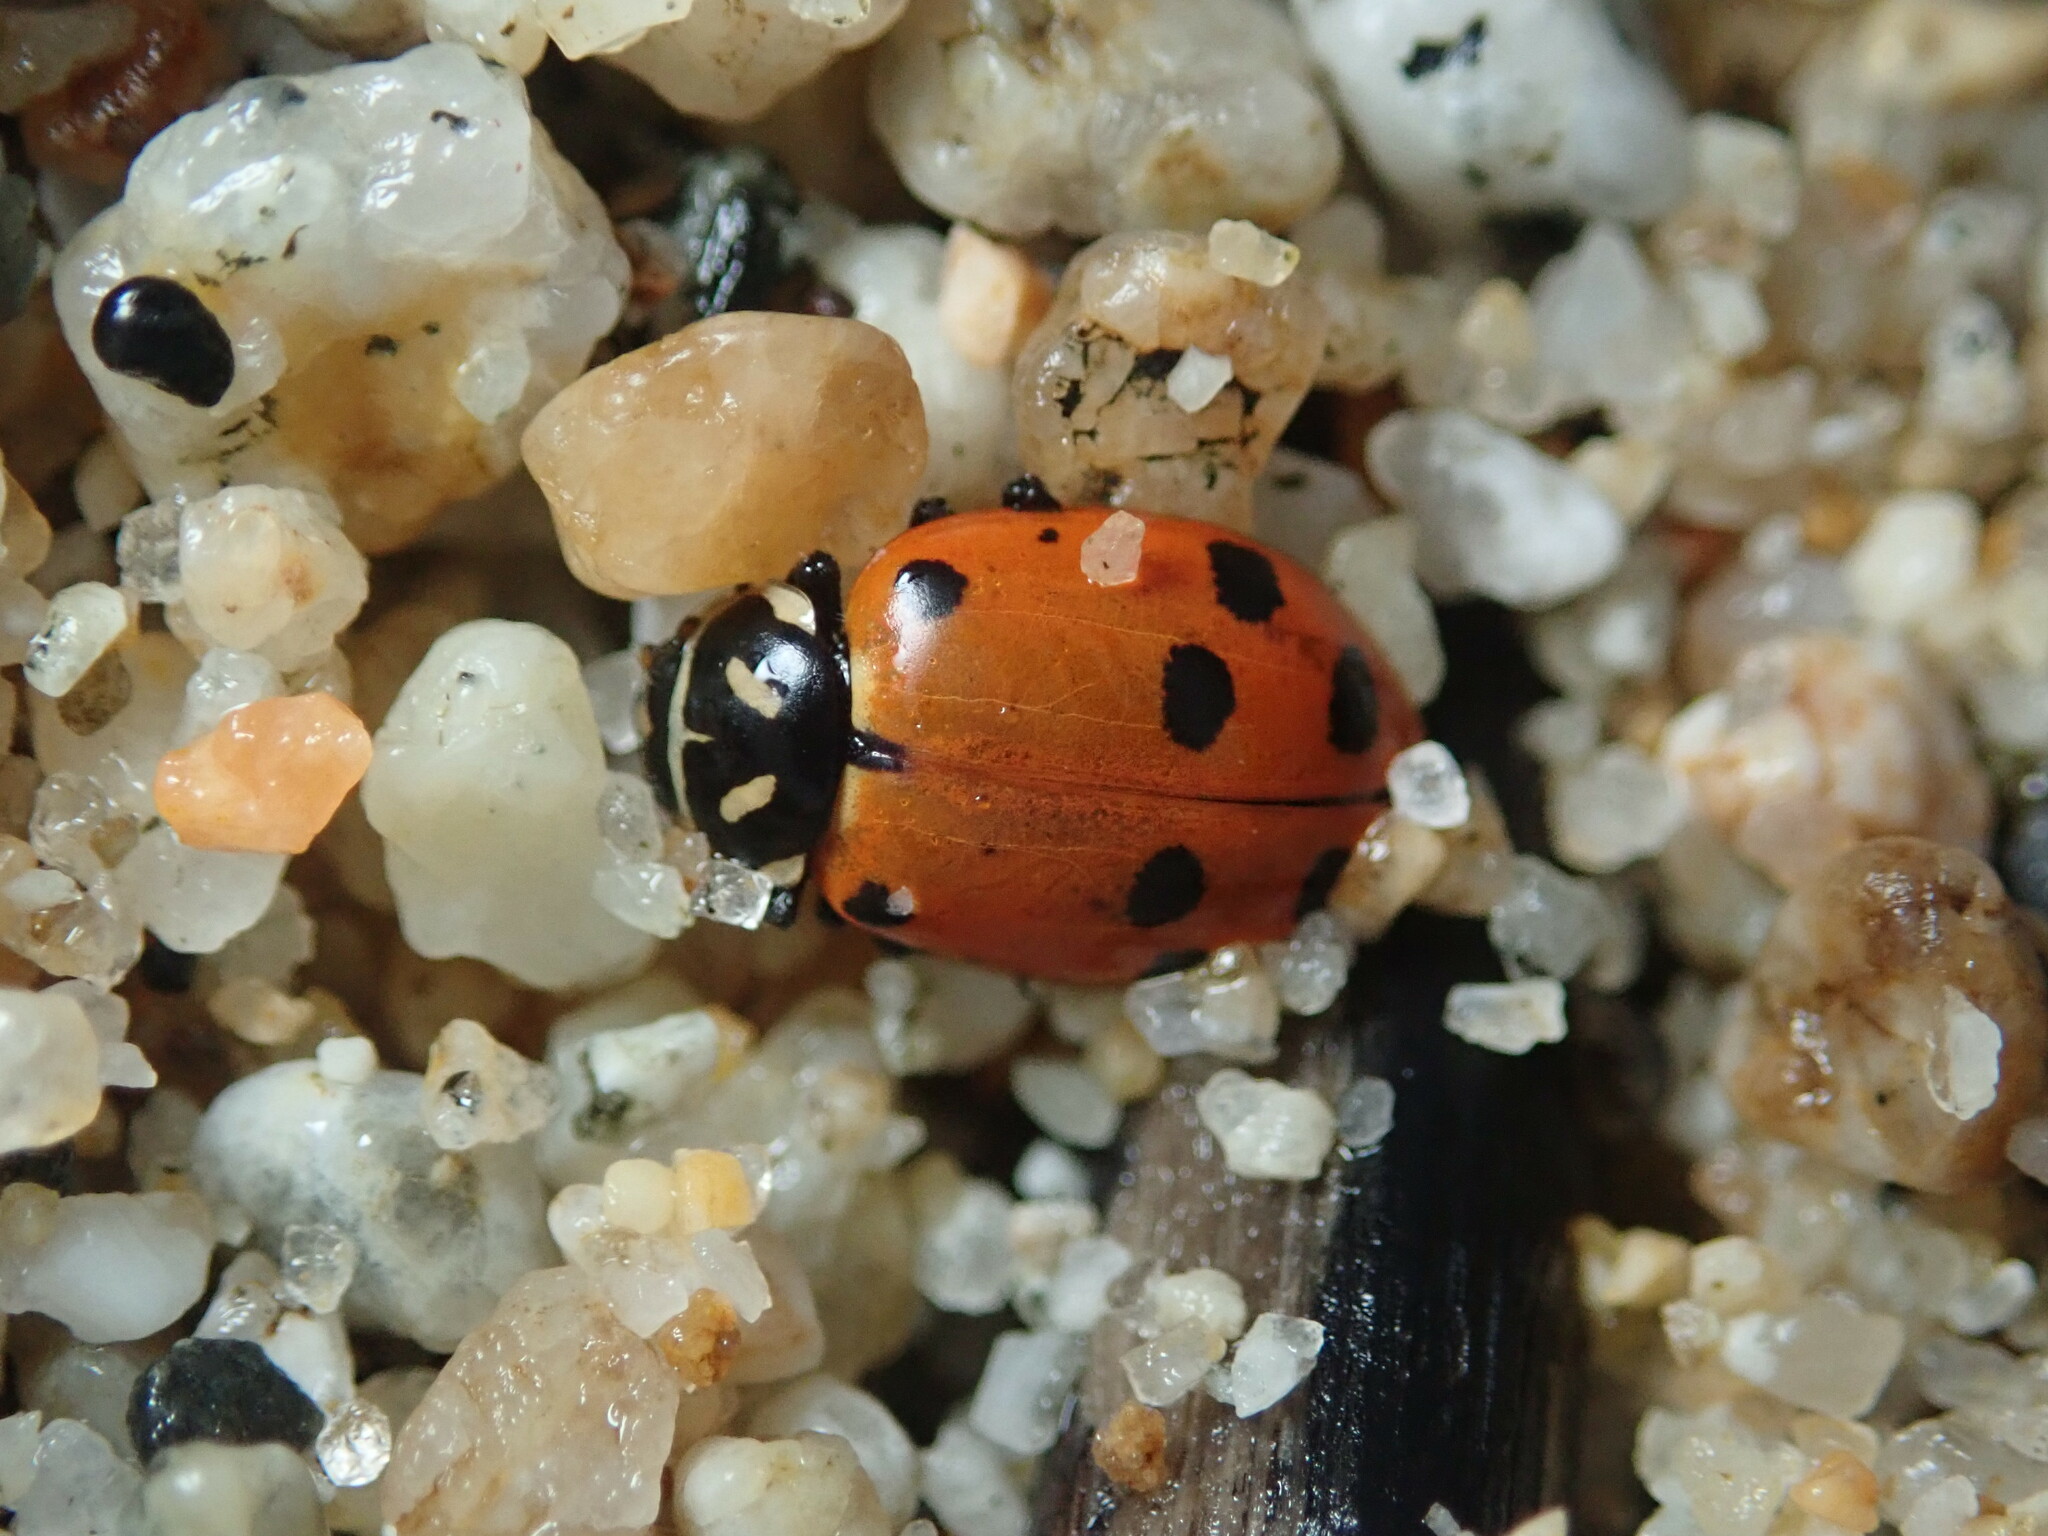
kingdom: Animalia
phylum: Arthropoda
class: Insecta
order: Coleoptera
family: Coccinellidae
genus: Hippodamia
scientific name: Hippodamia convergens
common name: Convergent lady beetle
